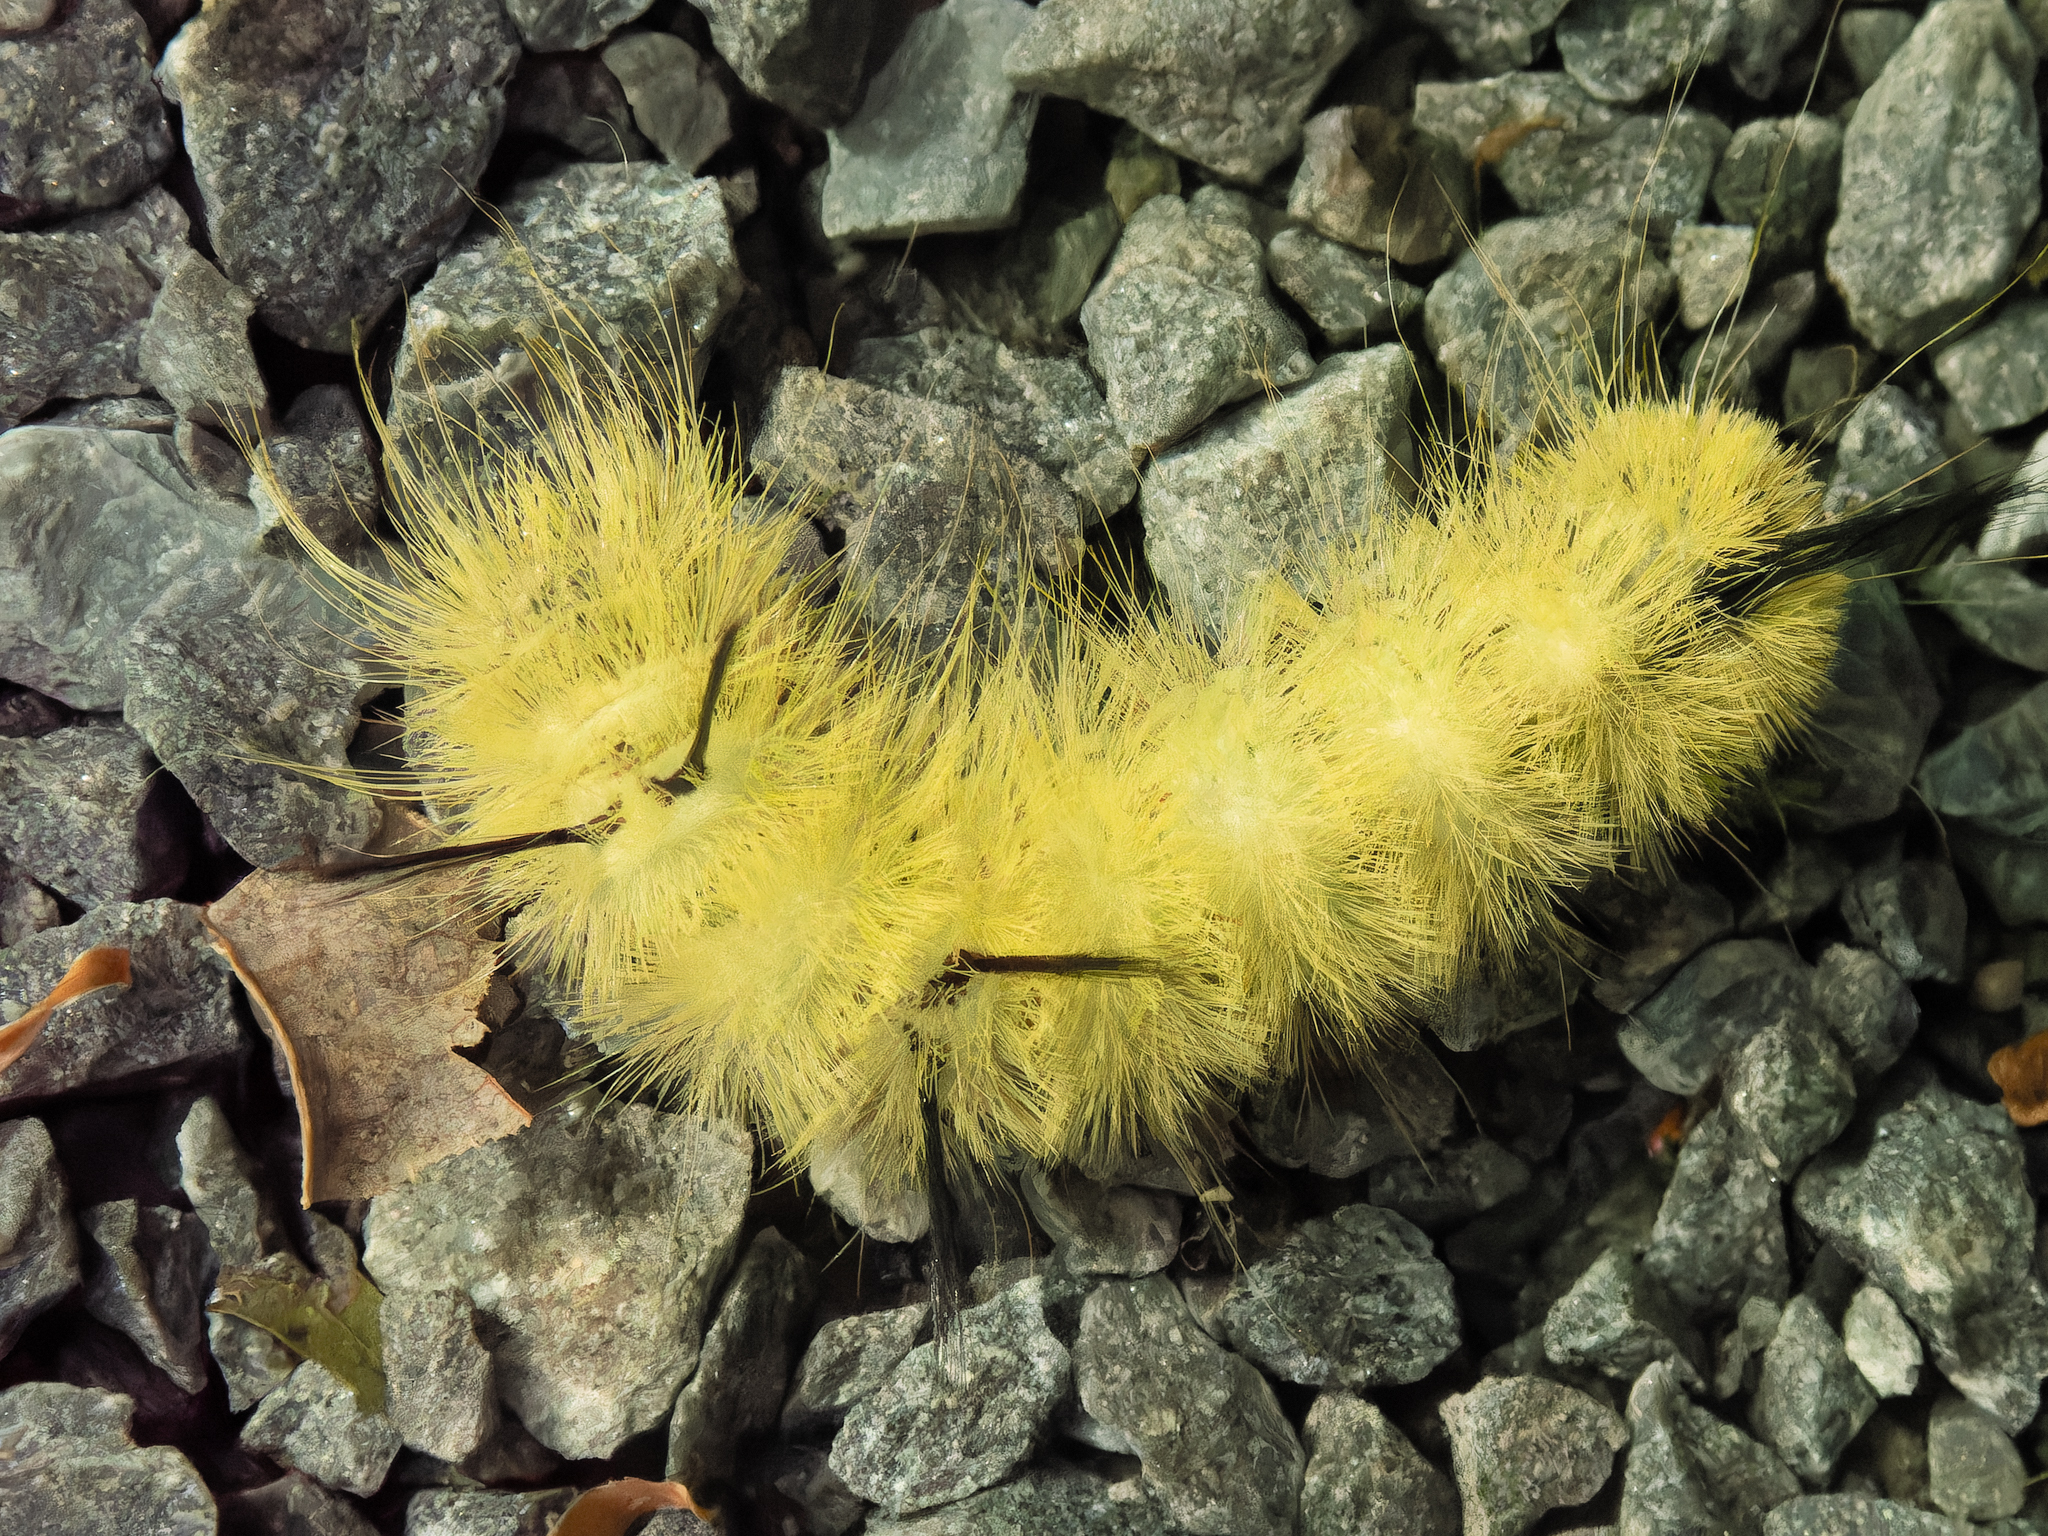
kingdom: Animalia
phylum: Arthropoda
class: Insecta
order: Lepidoptera
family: Noctuidae
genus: Acronicta
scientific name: Acronicta americana
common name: American dagger
